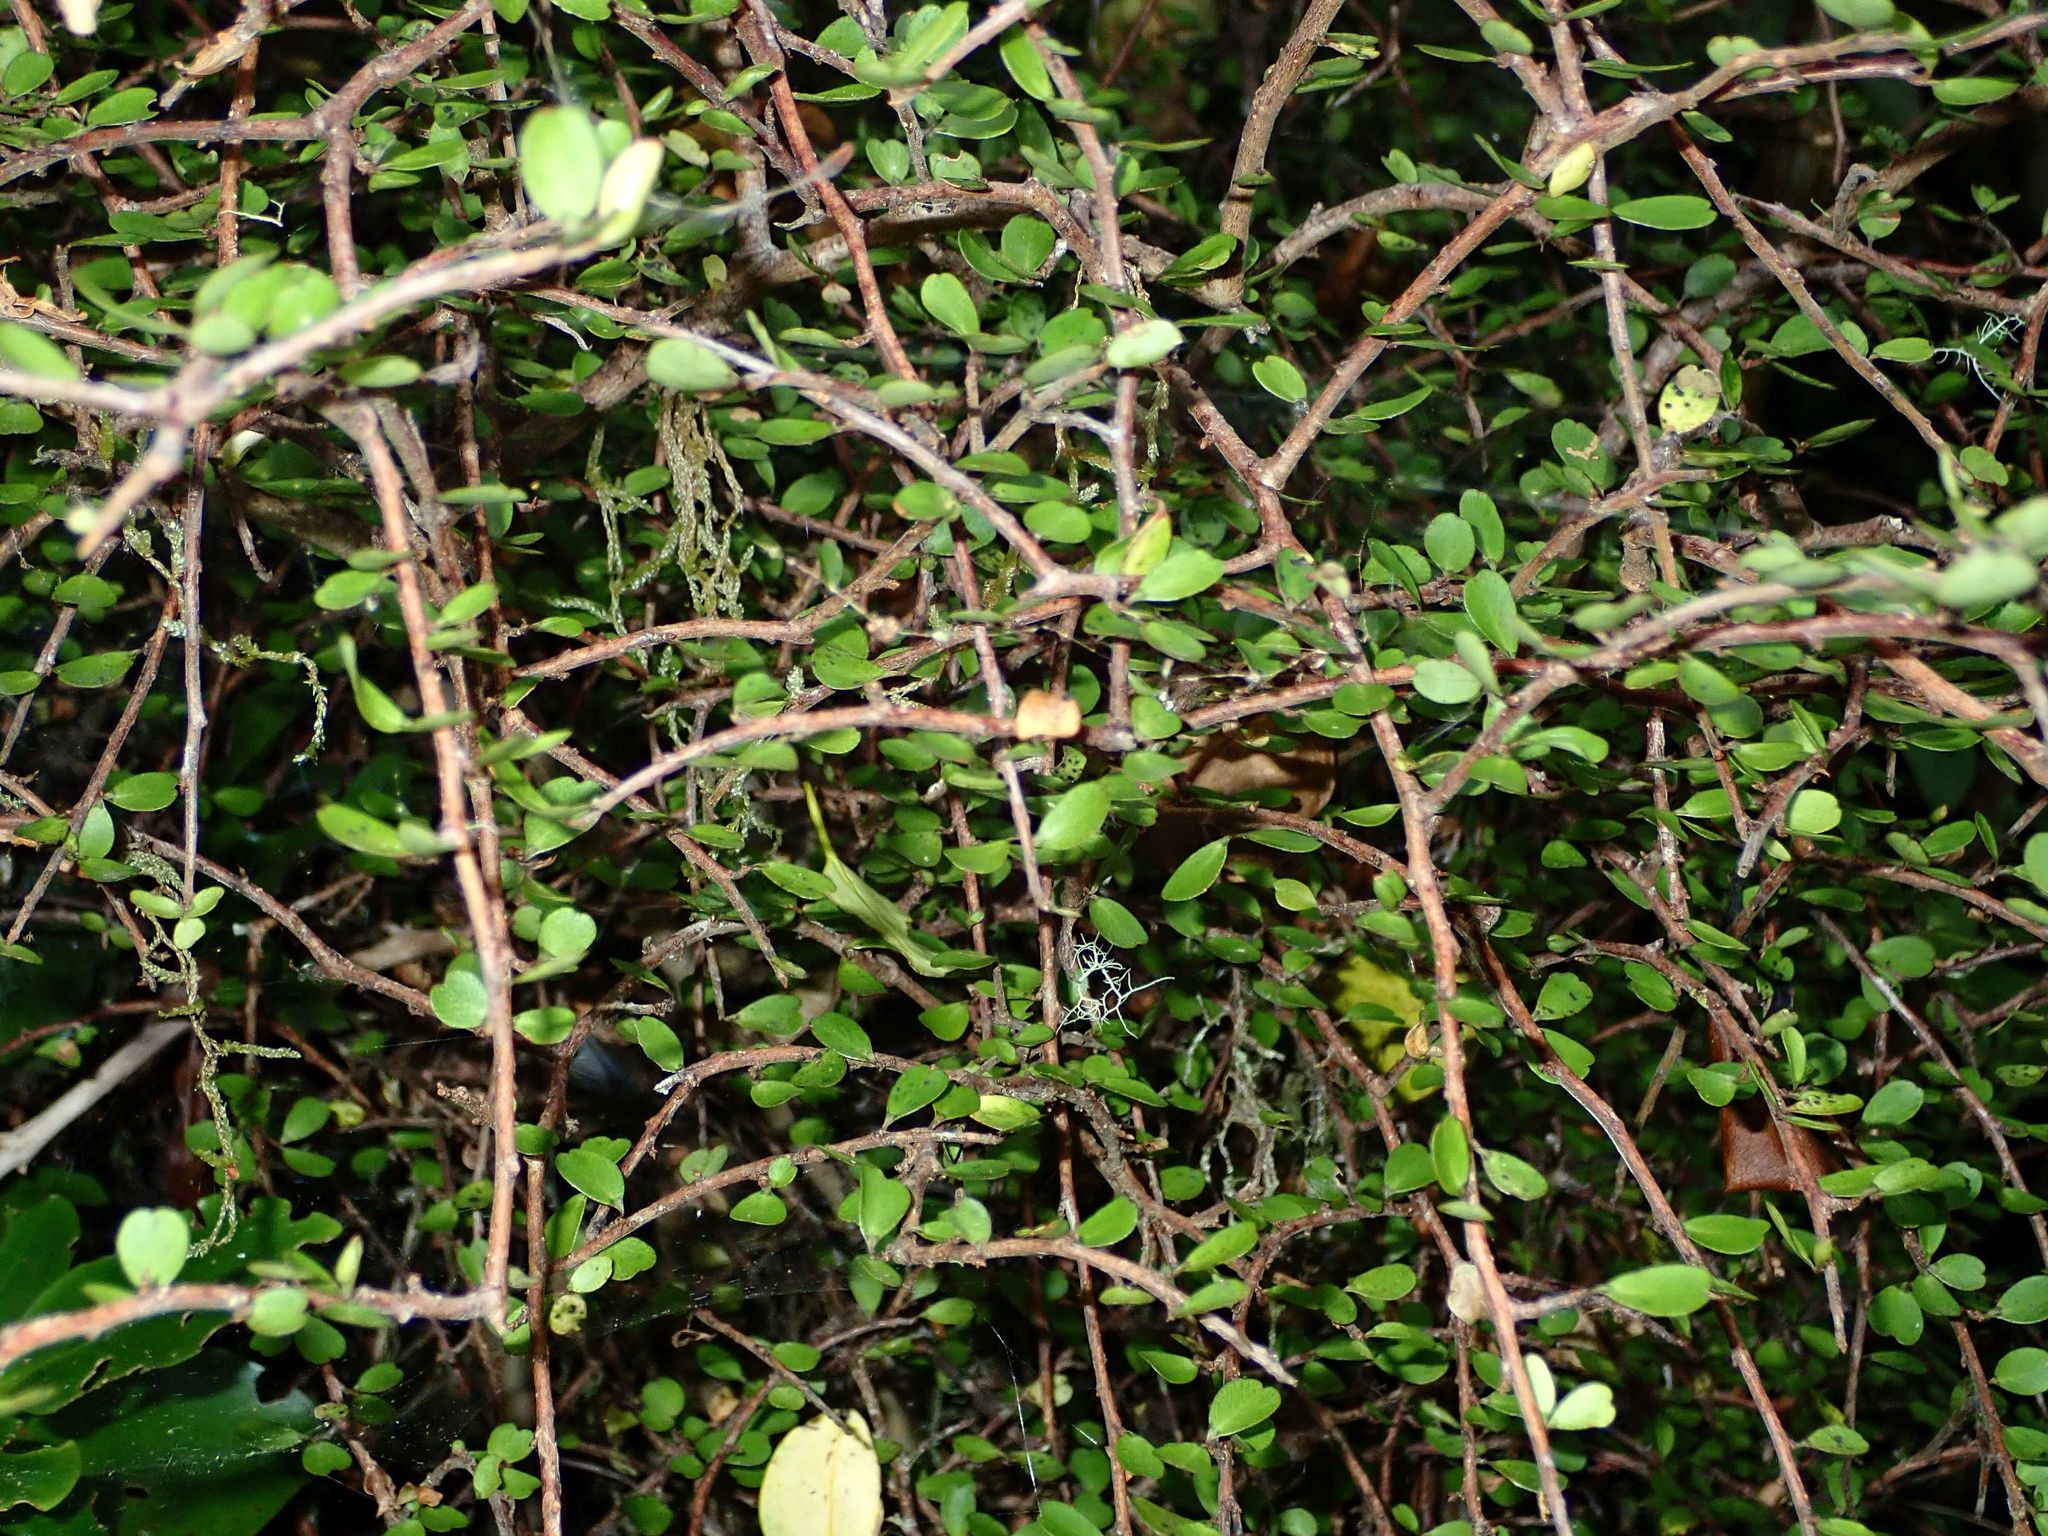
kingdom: Plantae
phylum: Tracheophyta
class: Magnoliopsida
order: Ericales
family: Primulaceae
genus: Myrsine
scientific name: Myrsine divaricata
